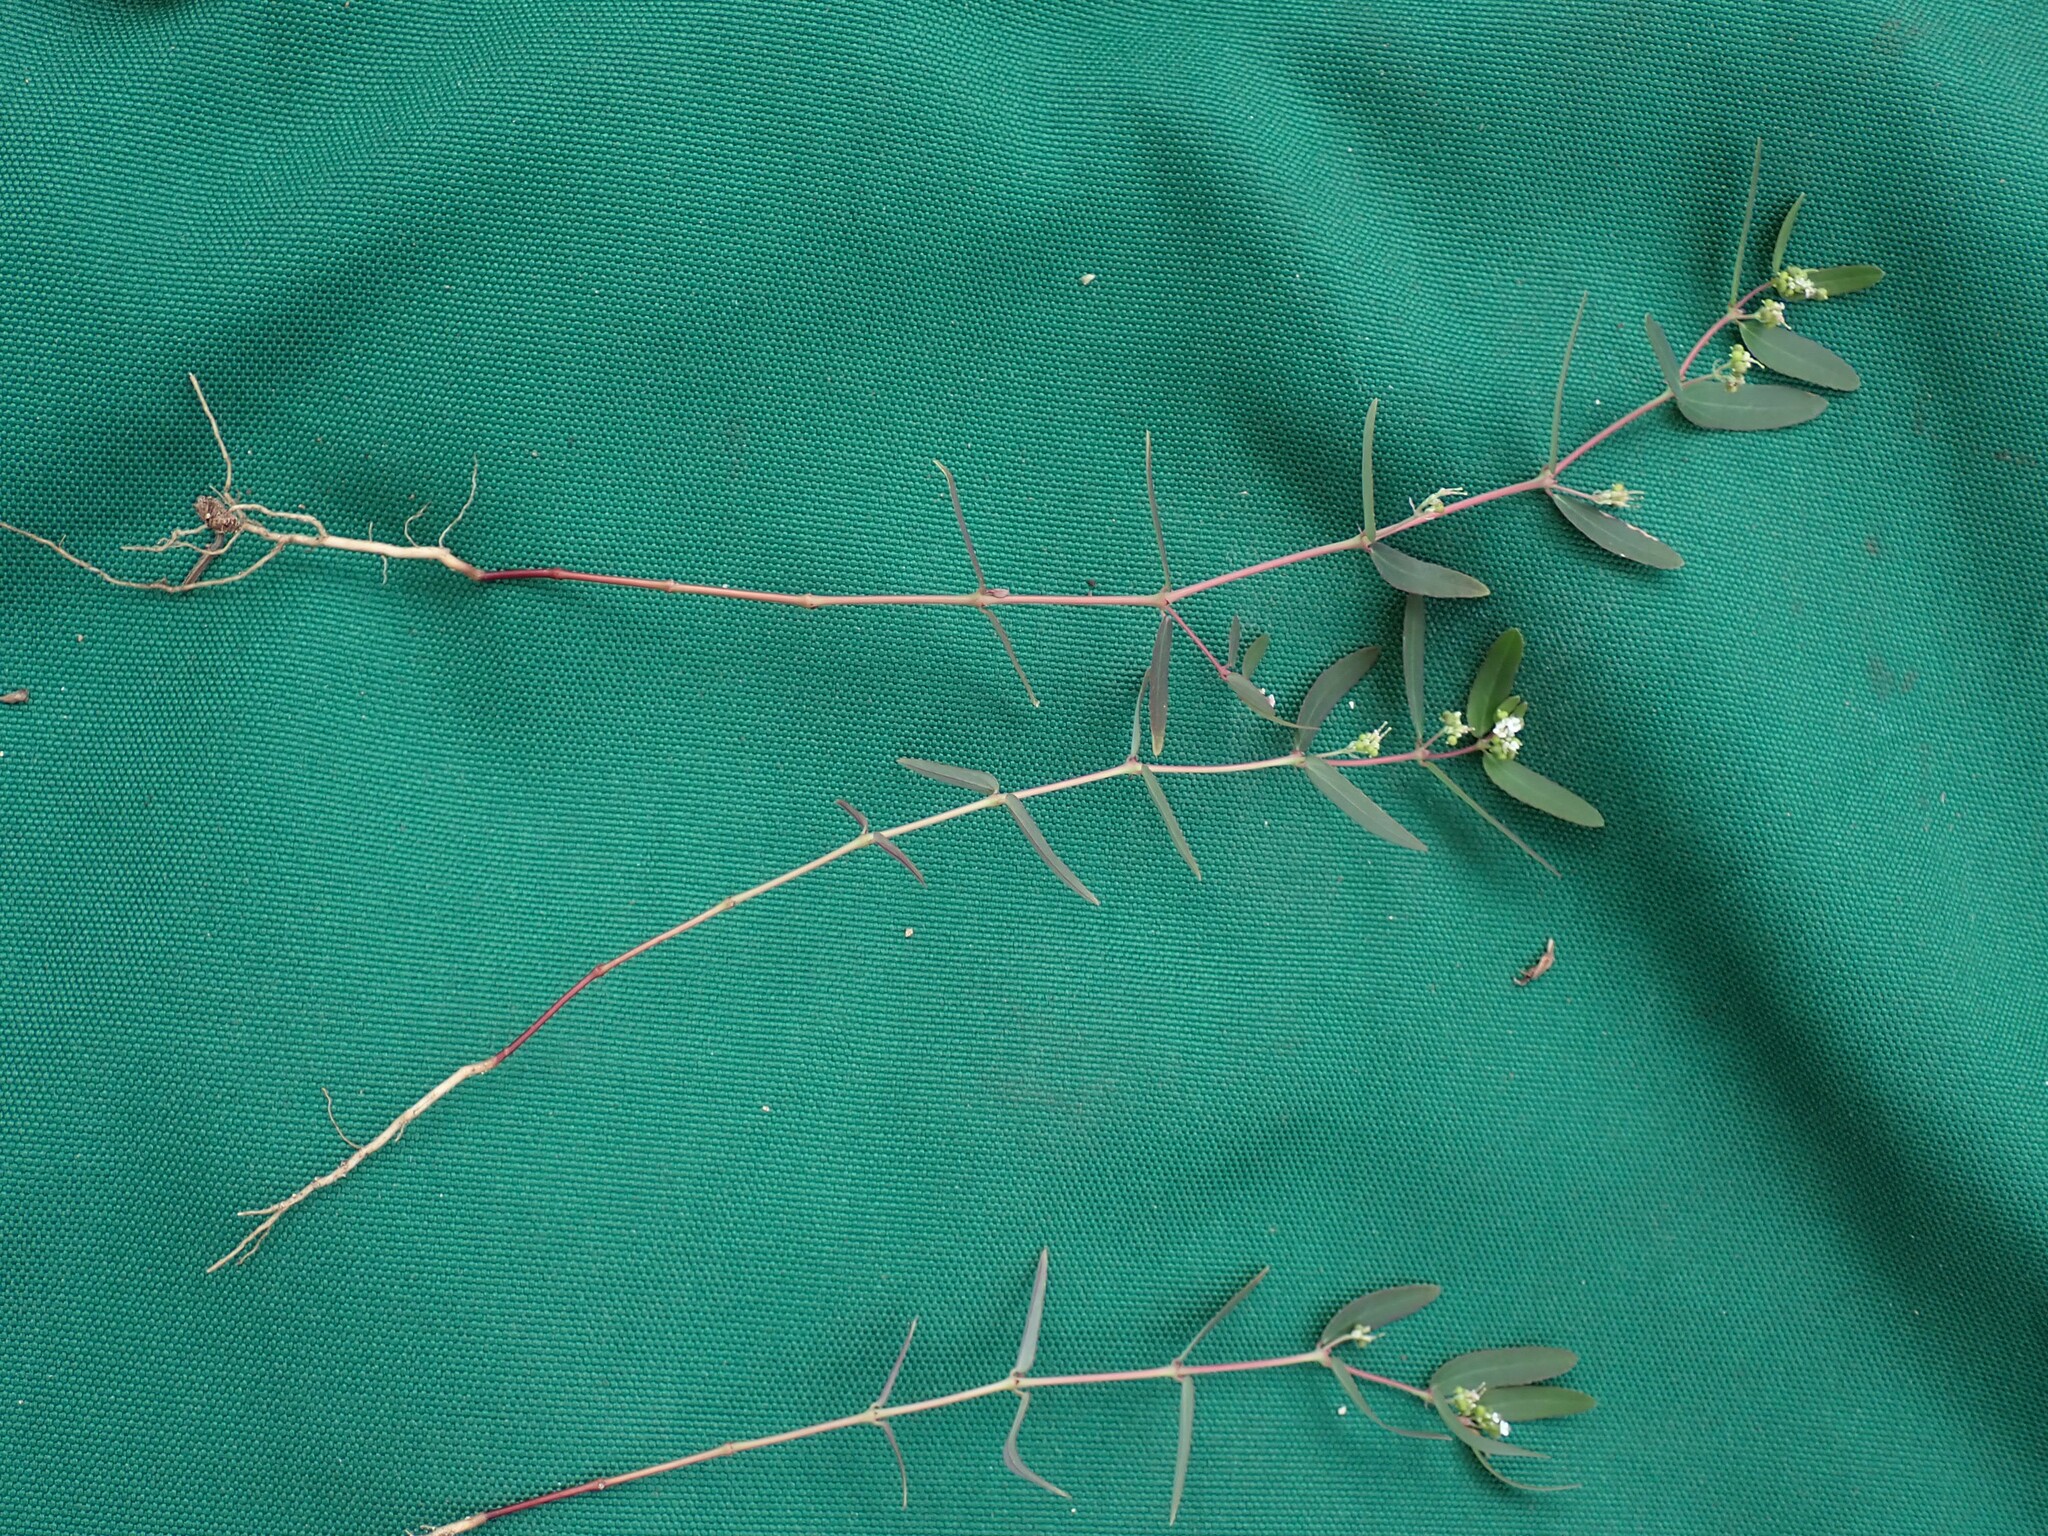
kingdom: Plantae
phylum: Tracheophyta
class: Magnoliopsida
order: Malpighiales
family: Euphorbiaceae
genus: Euphorbia
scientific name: Euphorbia hypericifolia
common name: Graceful sandmat
